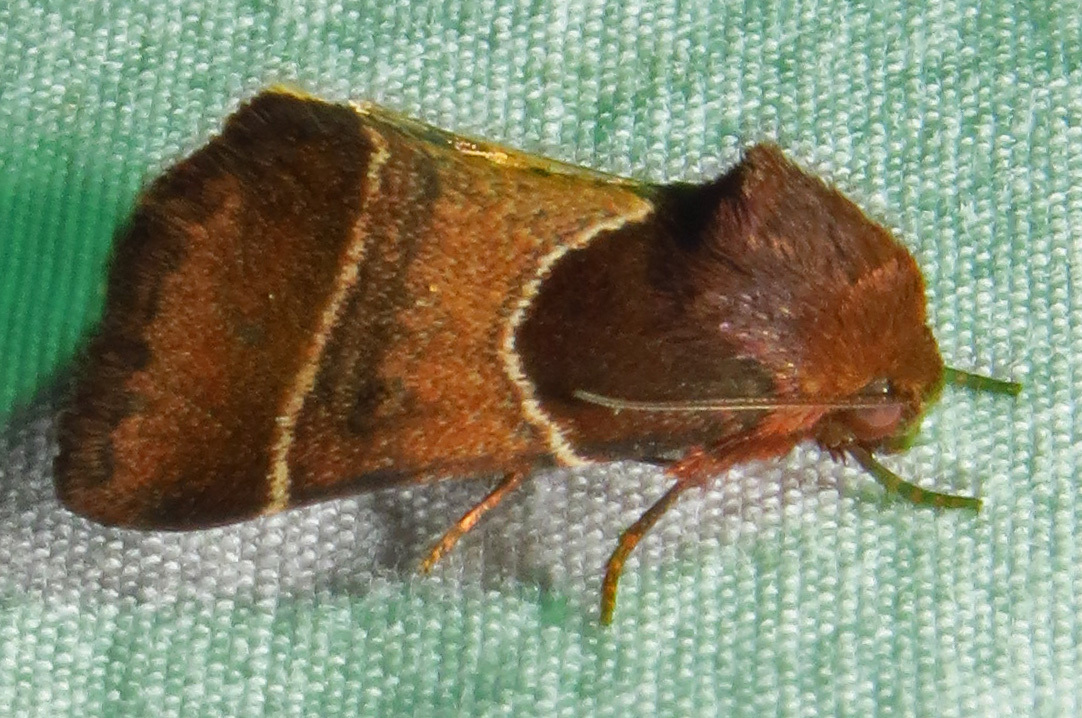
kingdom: Animalia
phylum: Arthropoda
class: Insecta
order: Lepidoptera
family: Noctuidae
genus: Schinia
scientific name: Schinia arcigera
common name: Arcigera flower moth
